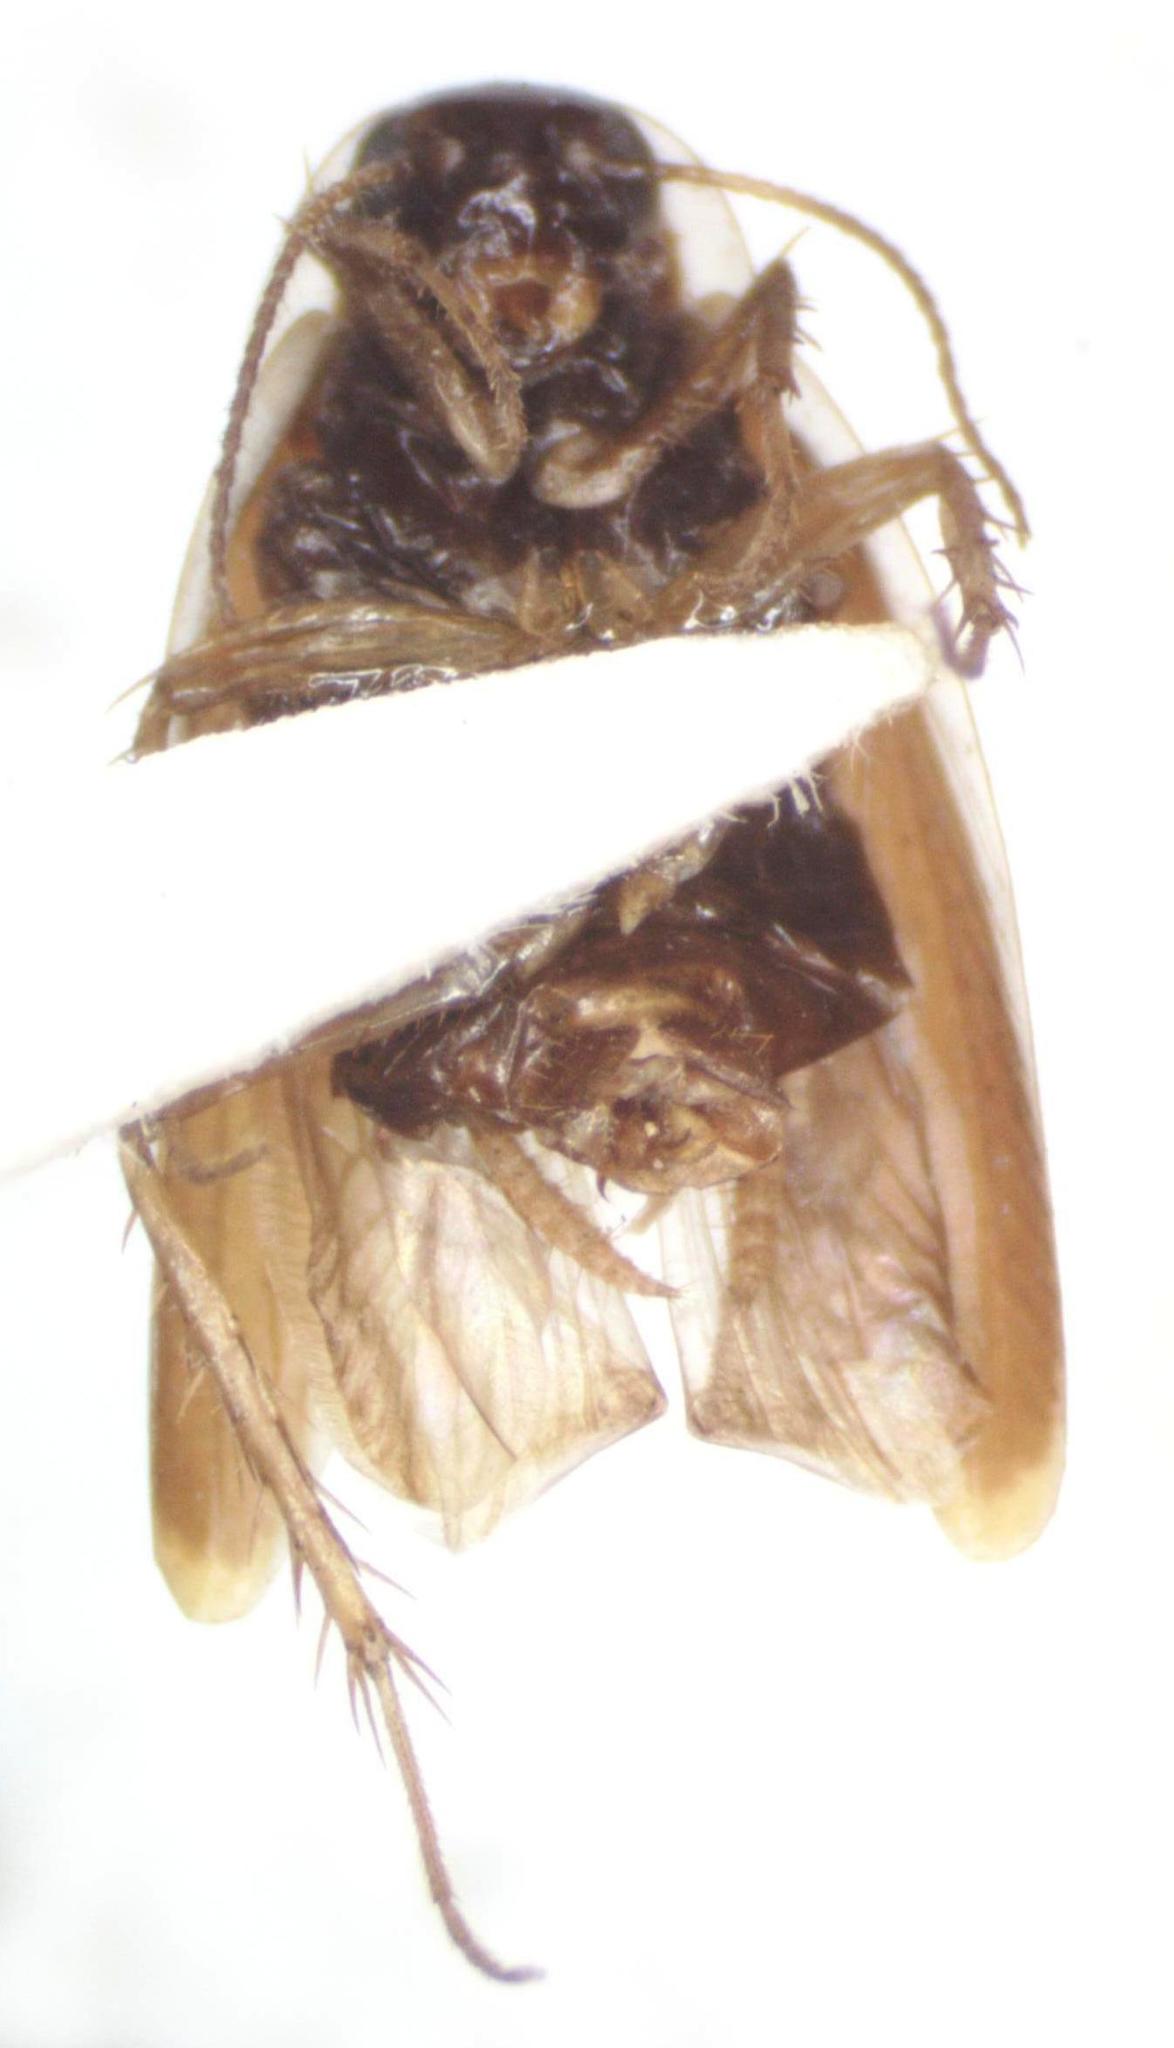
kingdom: Animalia
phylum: Arthropoda
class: Insecta
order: Blattodea
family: Anaplectidae
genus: Anaplecta
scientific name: Anaplecta fallax
